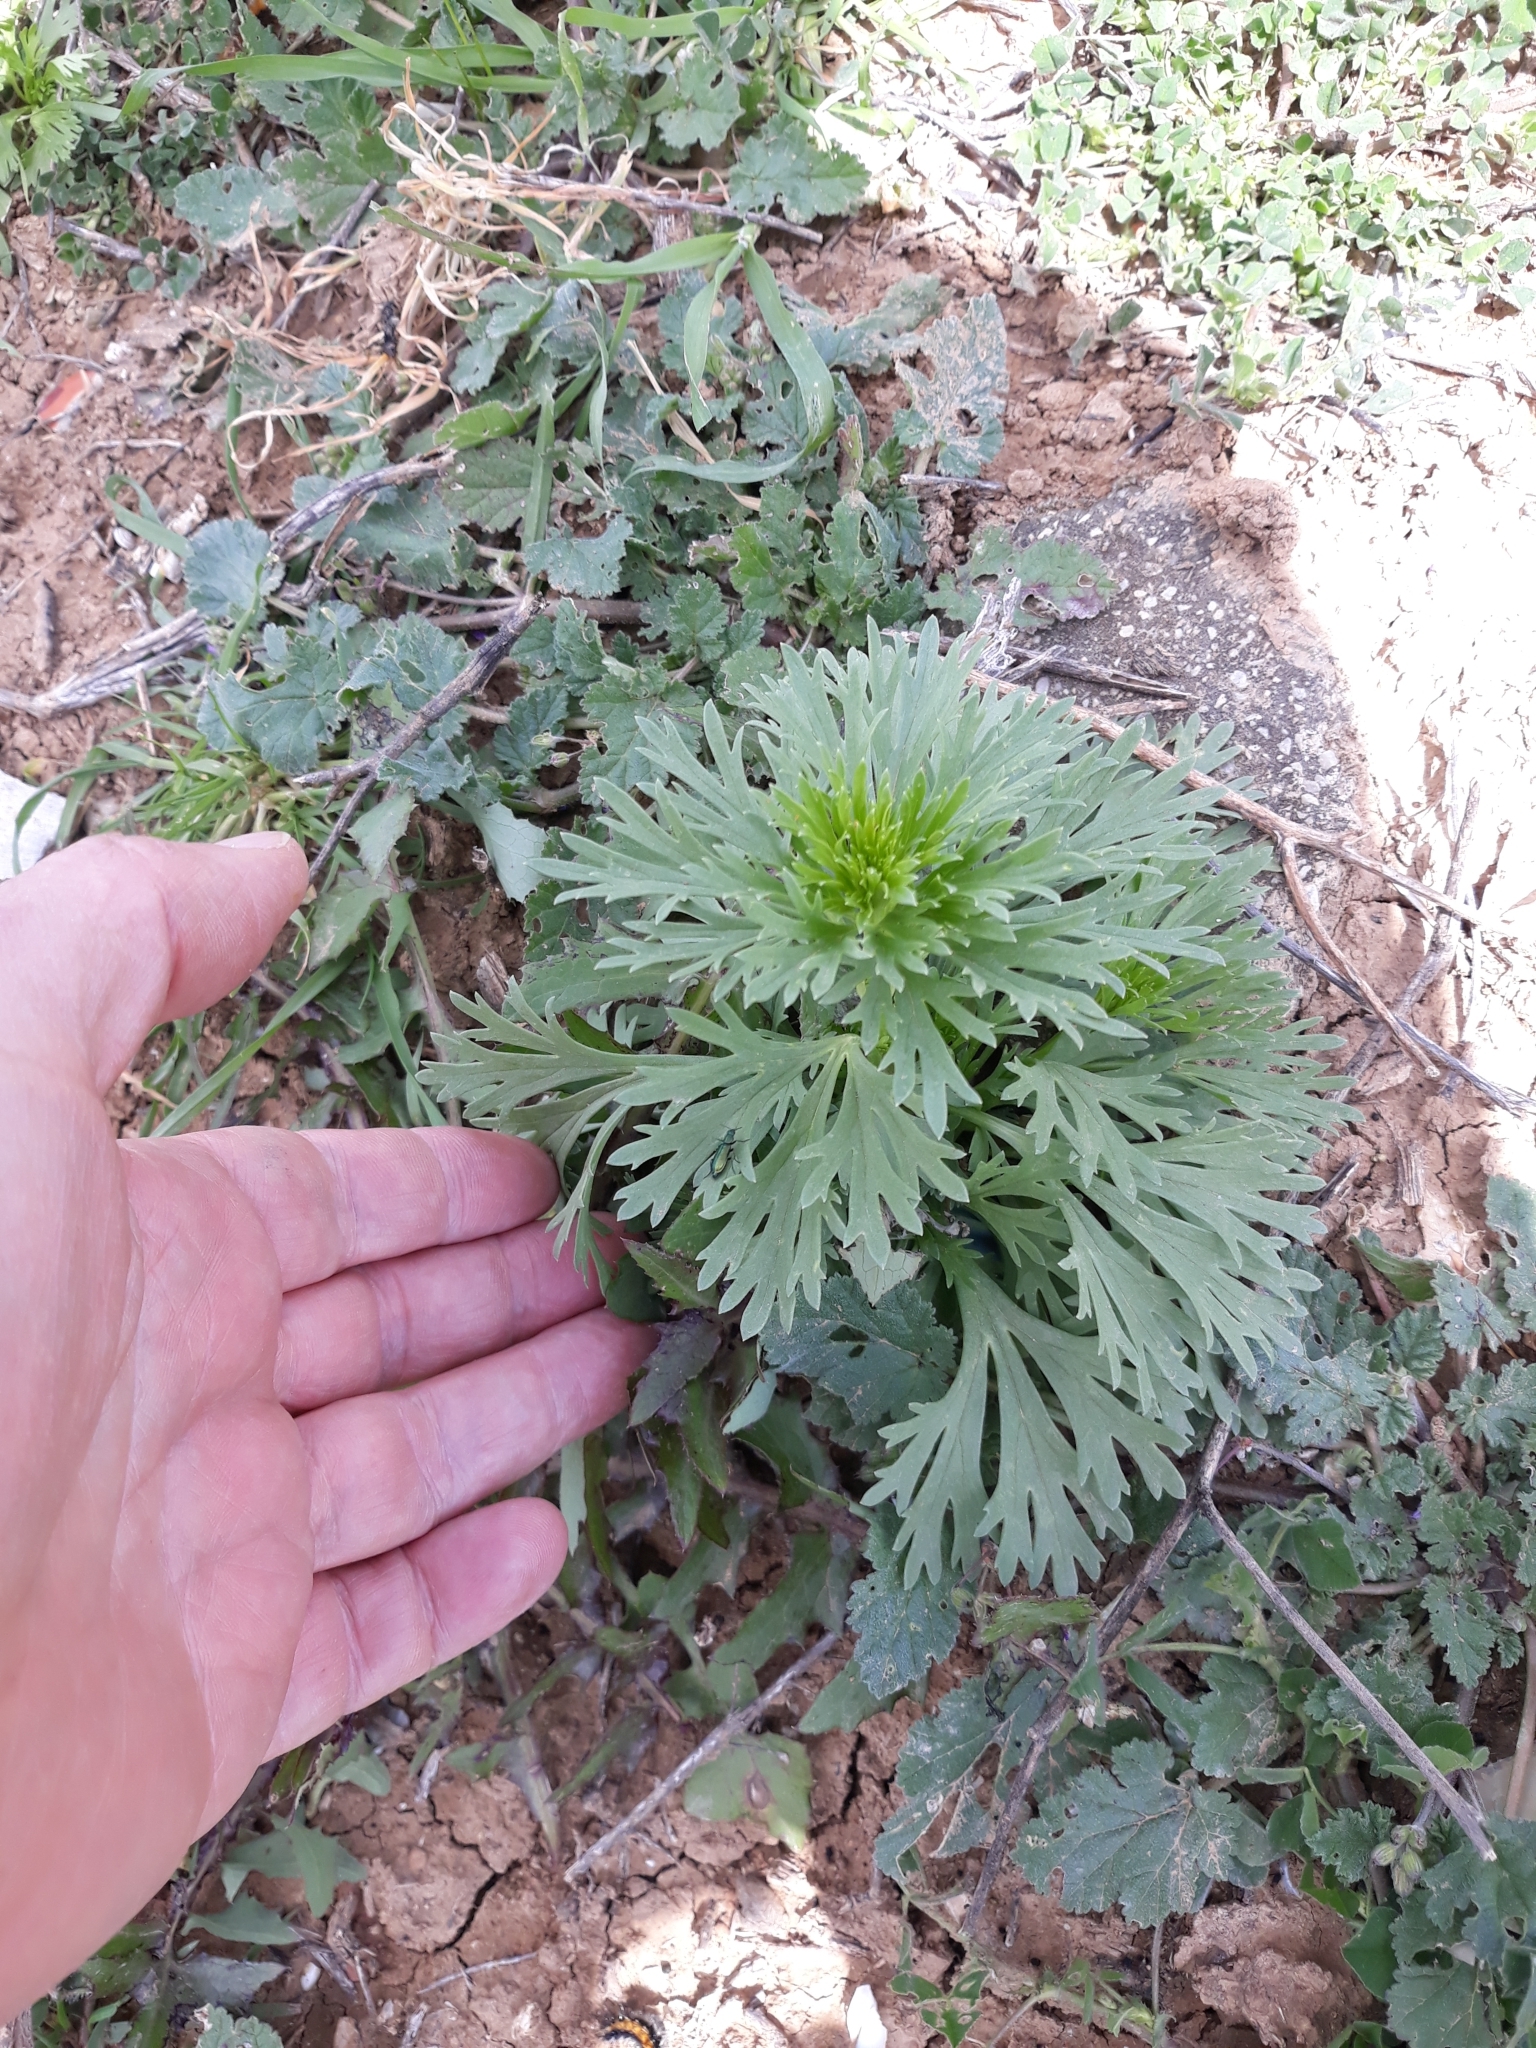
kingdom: Plantae
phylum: Tracheophyta
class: Magnoliopsida
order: Sapindales
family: Tetradiclidaceae
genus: Peganum
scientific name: Peganum harmala
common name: Harmal peganum
